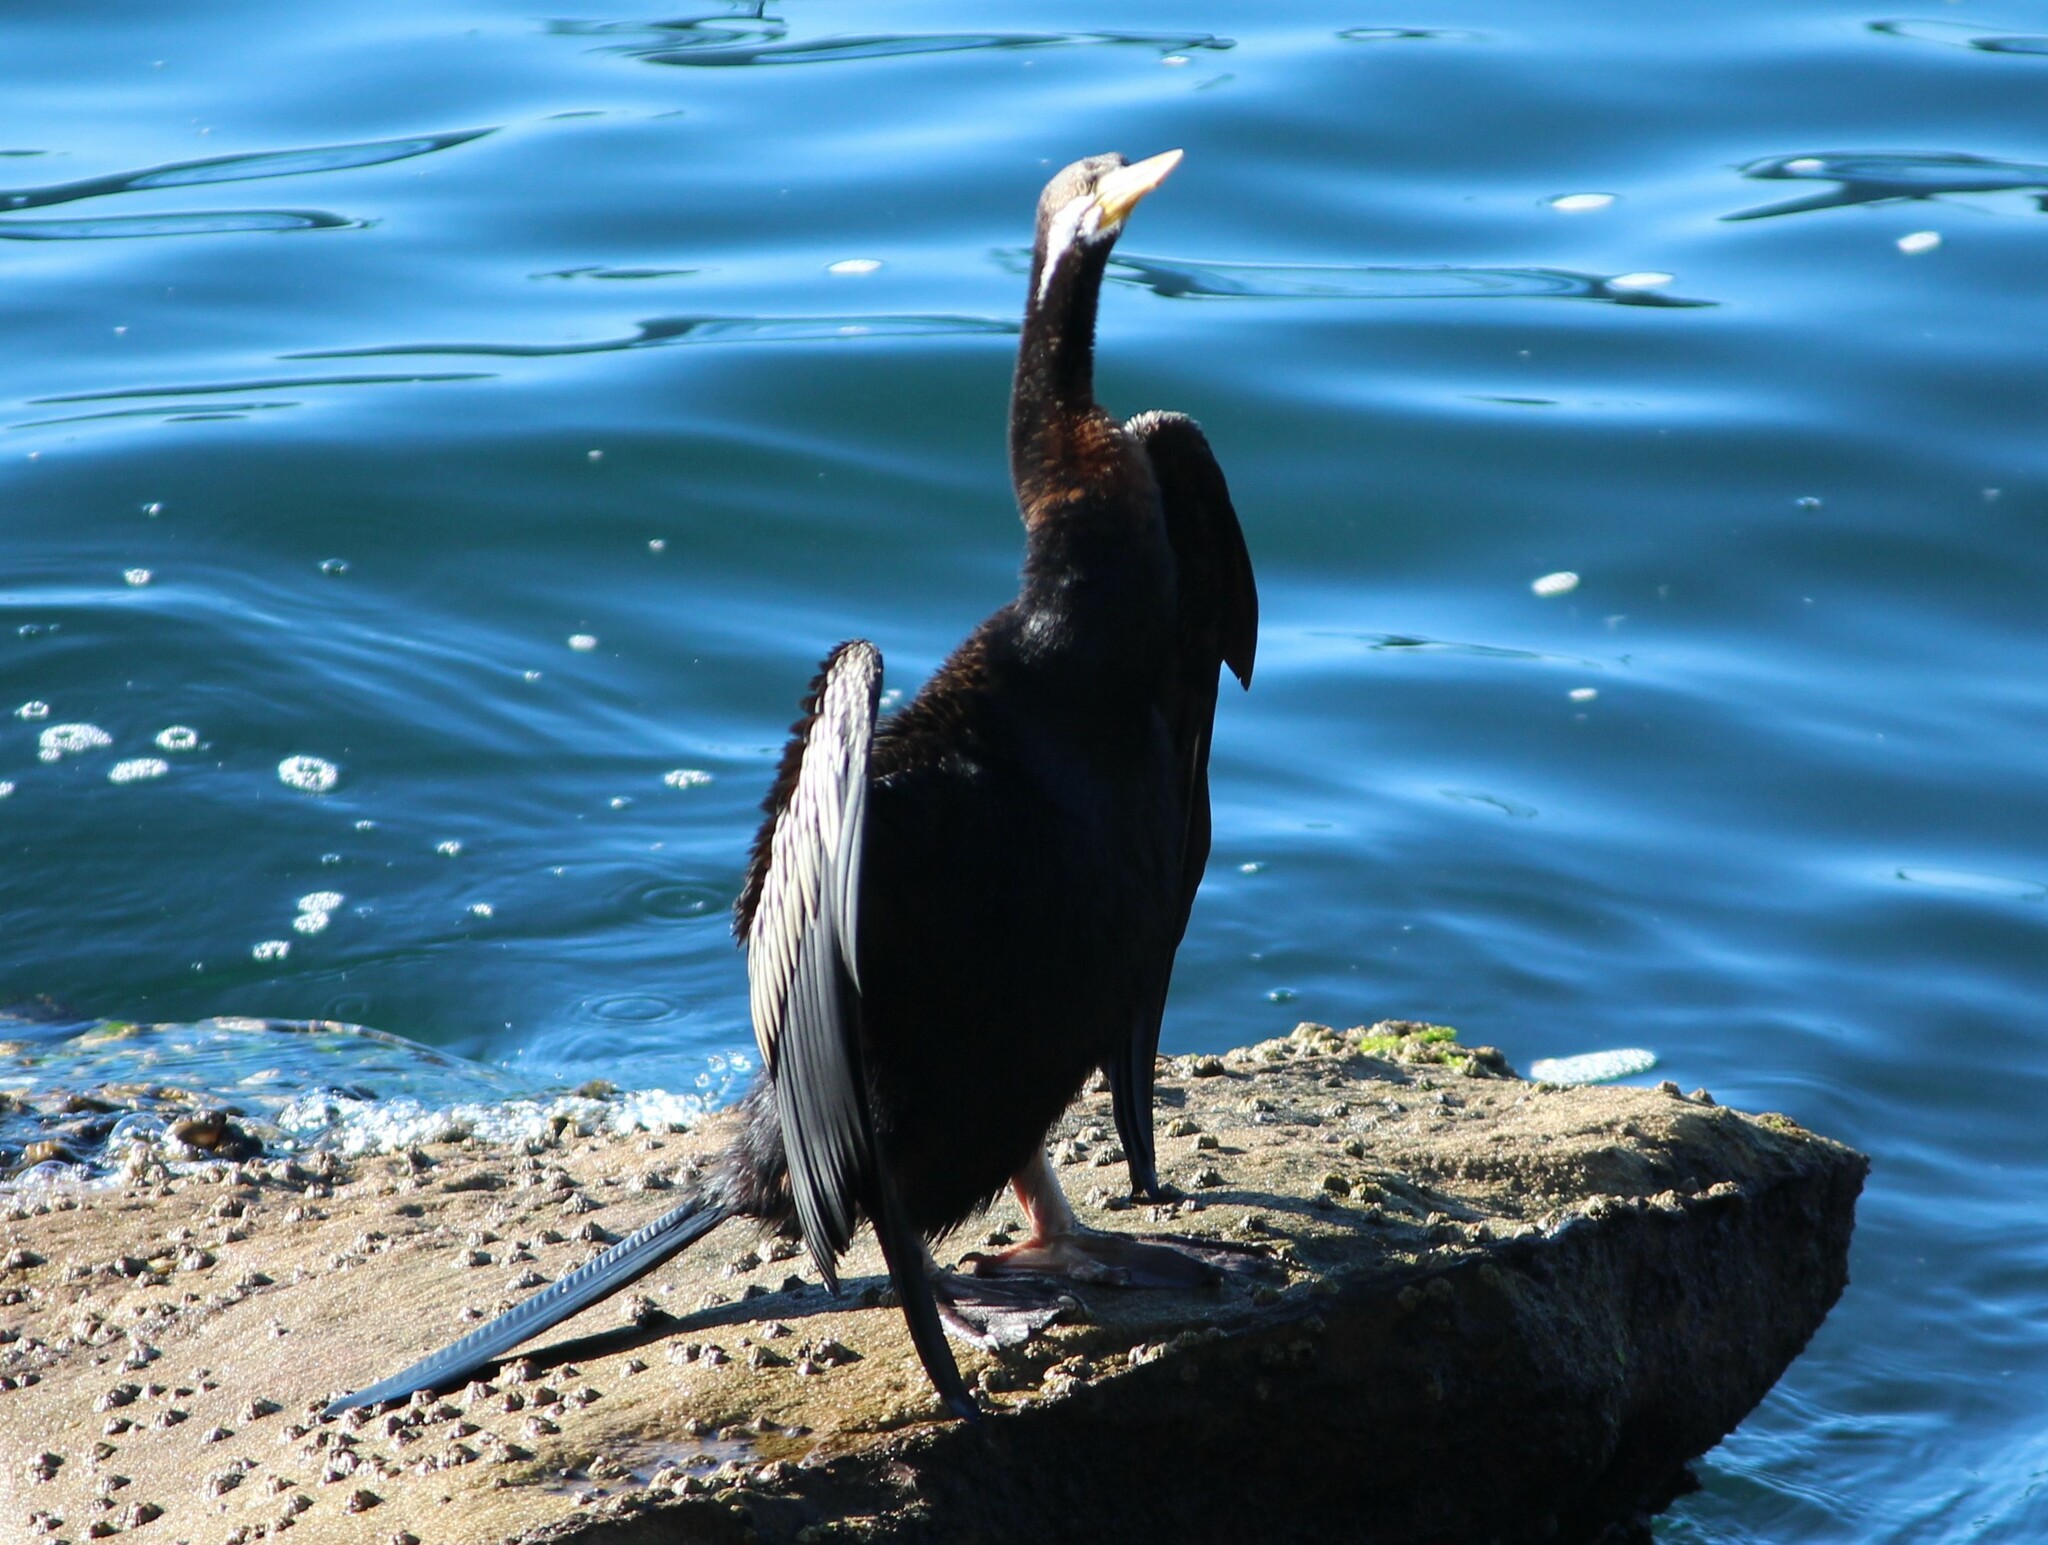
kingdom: Animalia
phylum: Chordata
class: Aves
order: Suliformes
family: Anhingidae
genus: Anhinga
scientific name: Anhinga novaehollandiae
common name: Australasian darter
